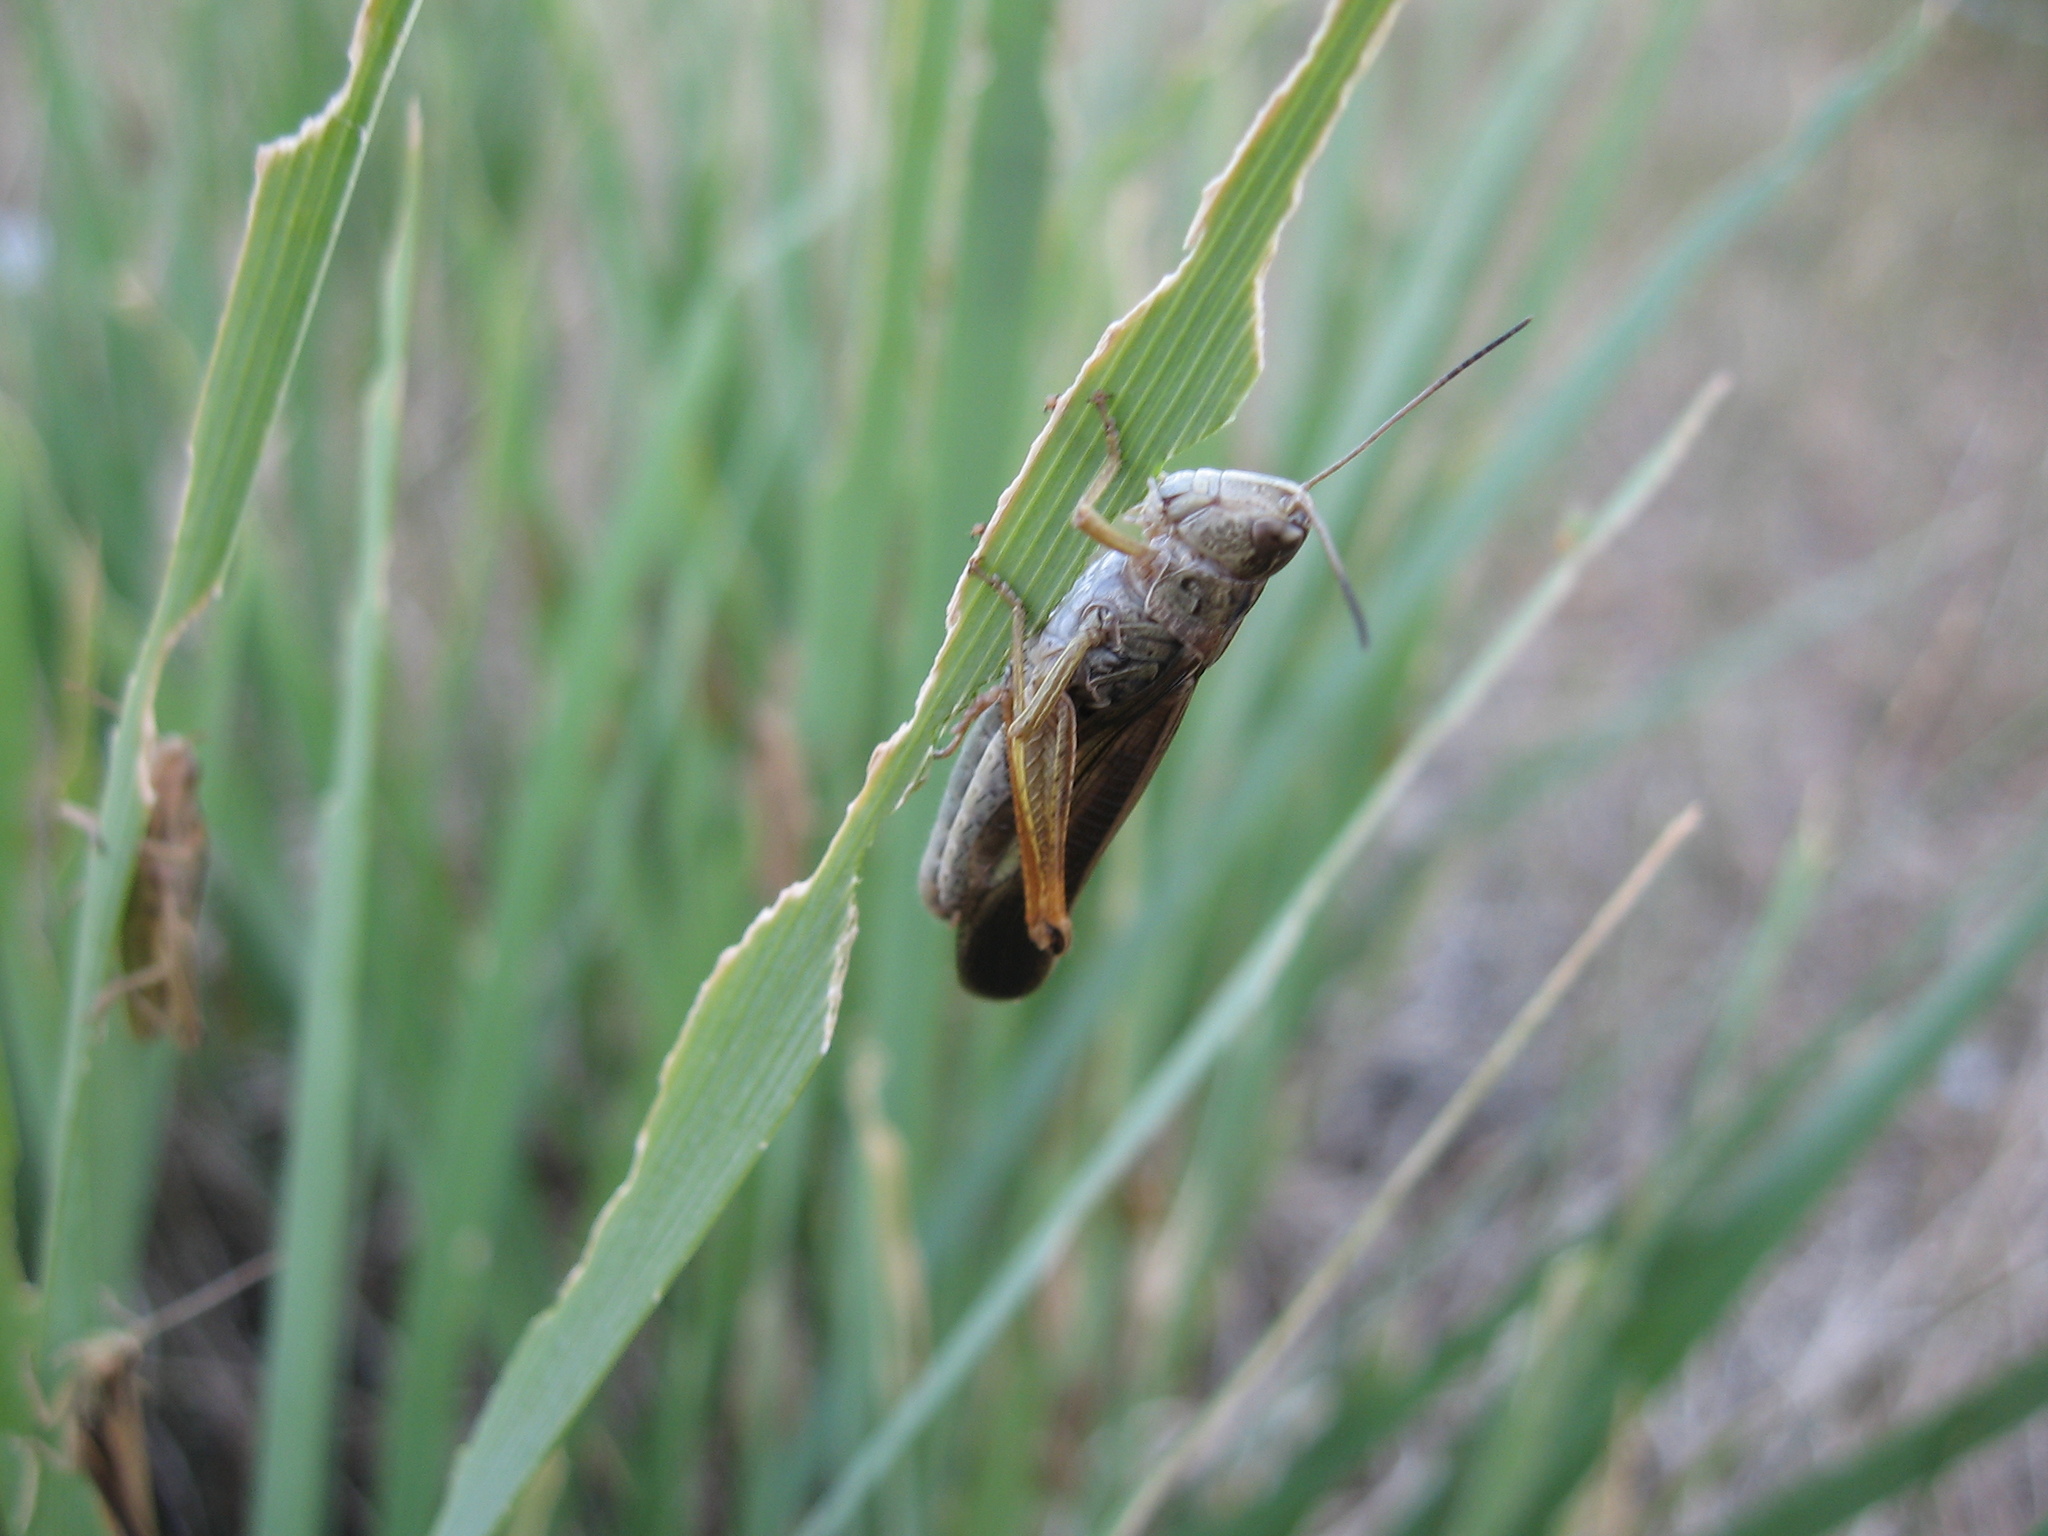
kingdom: Animalia
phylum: Arthropoda
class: Insecta
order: Orthoptera
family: Acrididae
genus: Stauroderus
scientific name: Stauroderus scalaris
